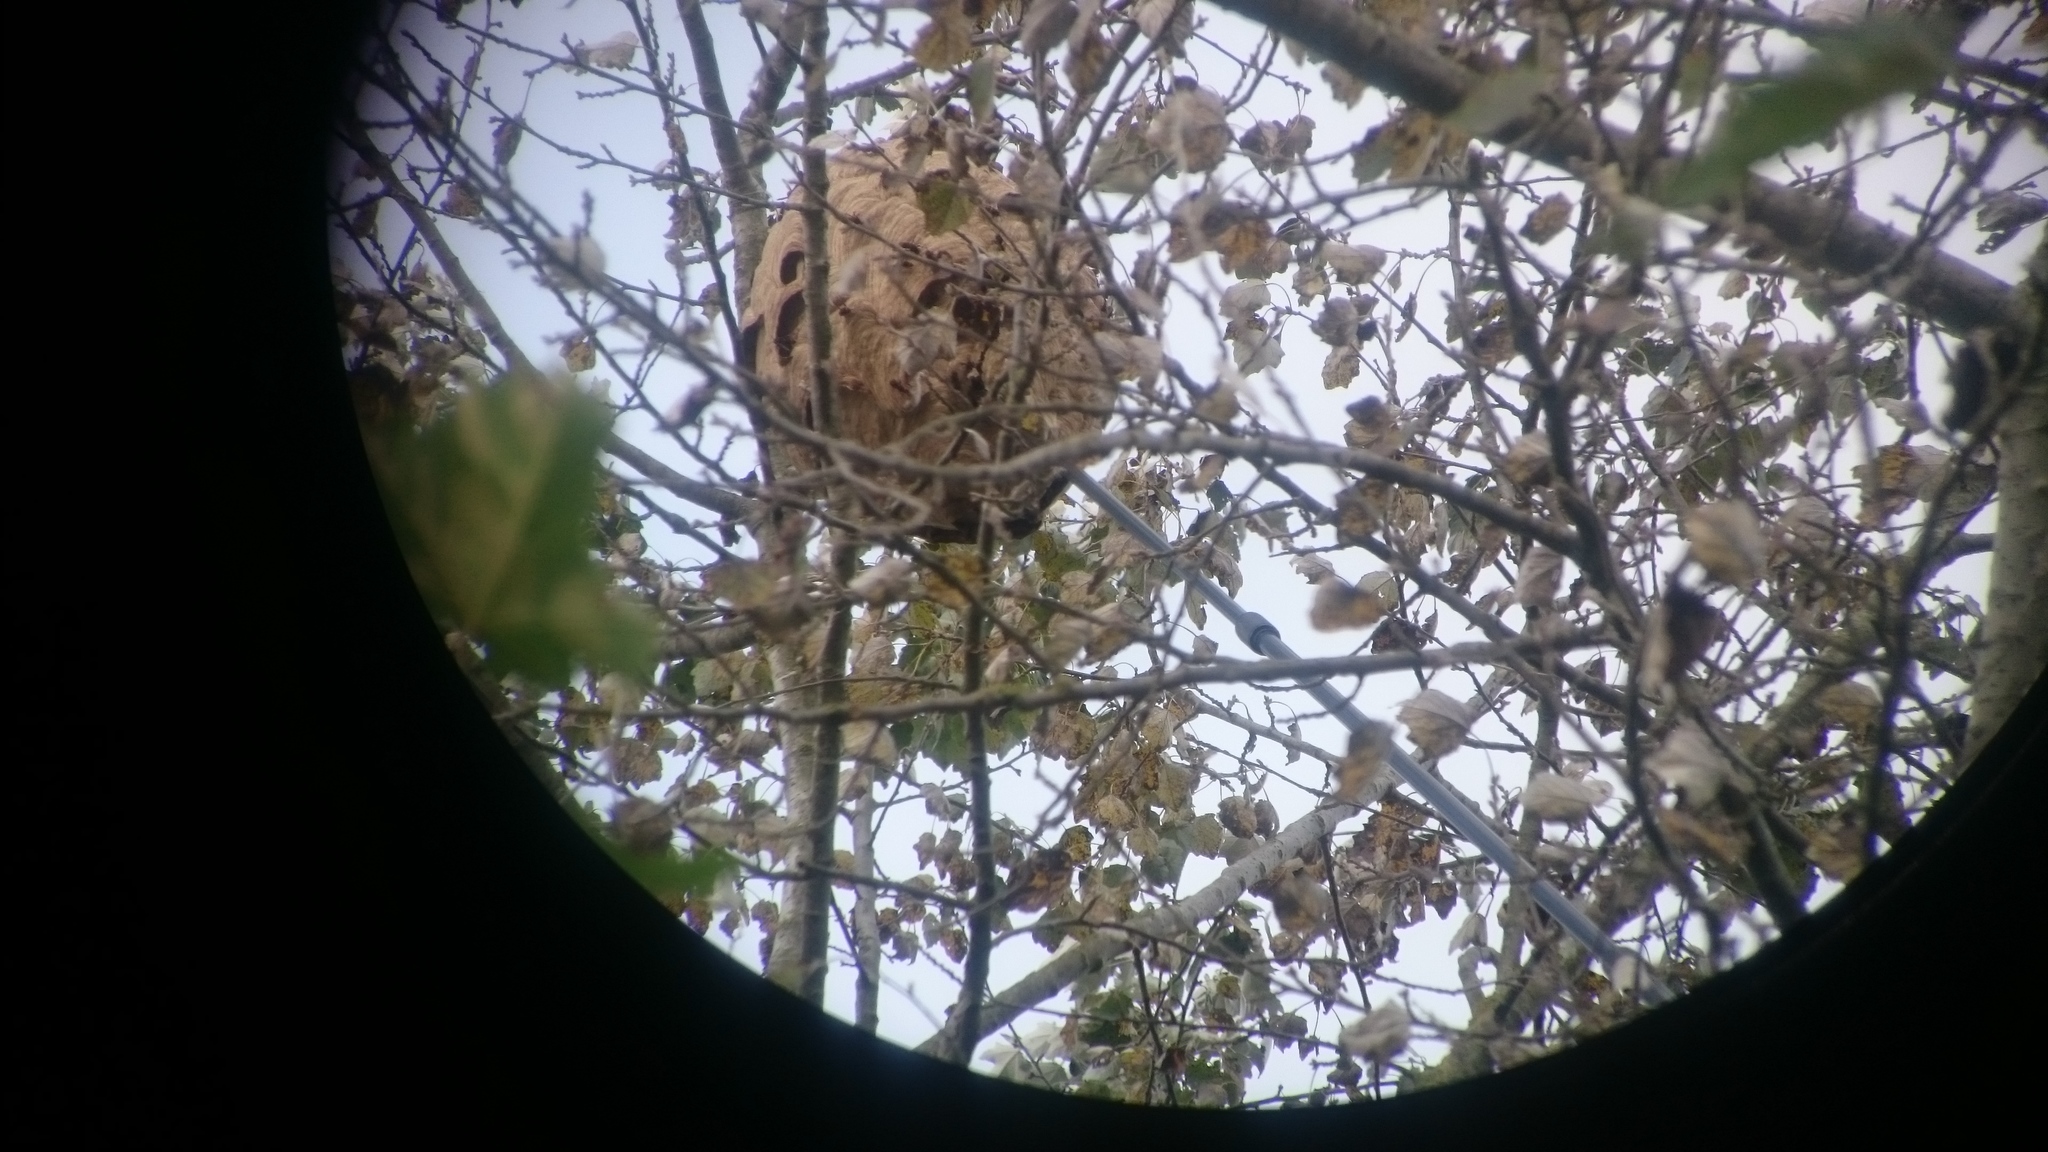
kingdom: Animalia
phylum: Arthropoda
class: Insecta
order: Hymenoptera
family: Vespidae
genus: Vespa
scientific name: Vespa velutina
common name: Asian hornet
